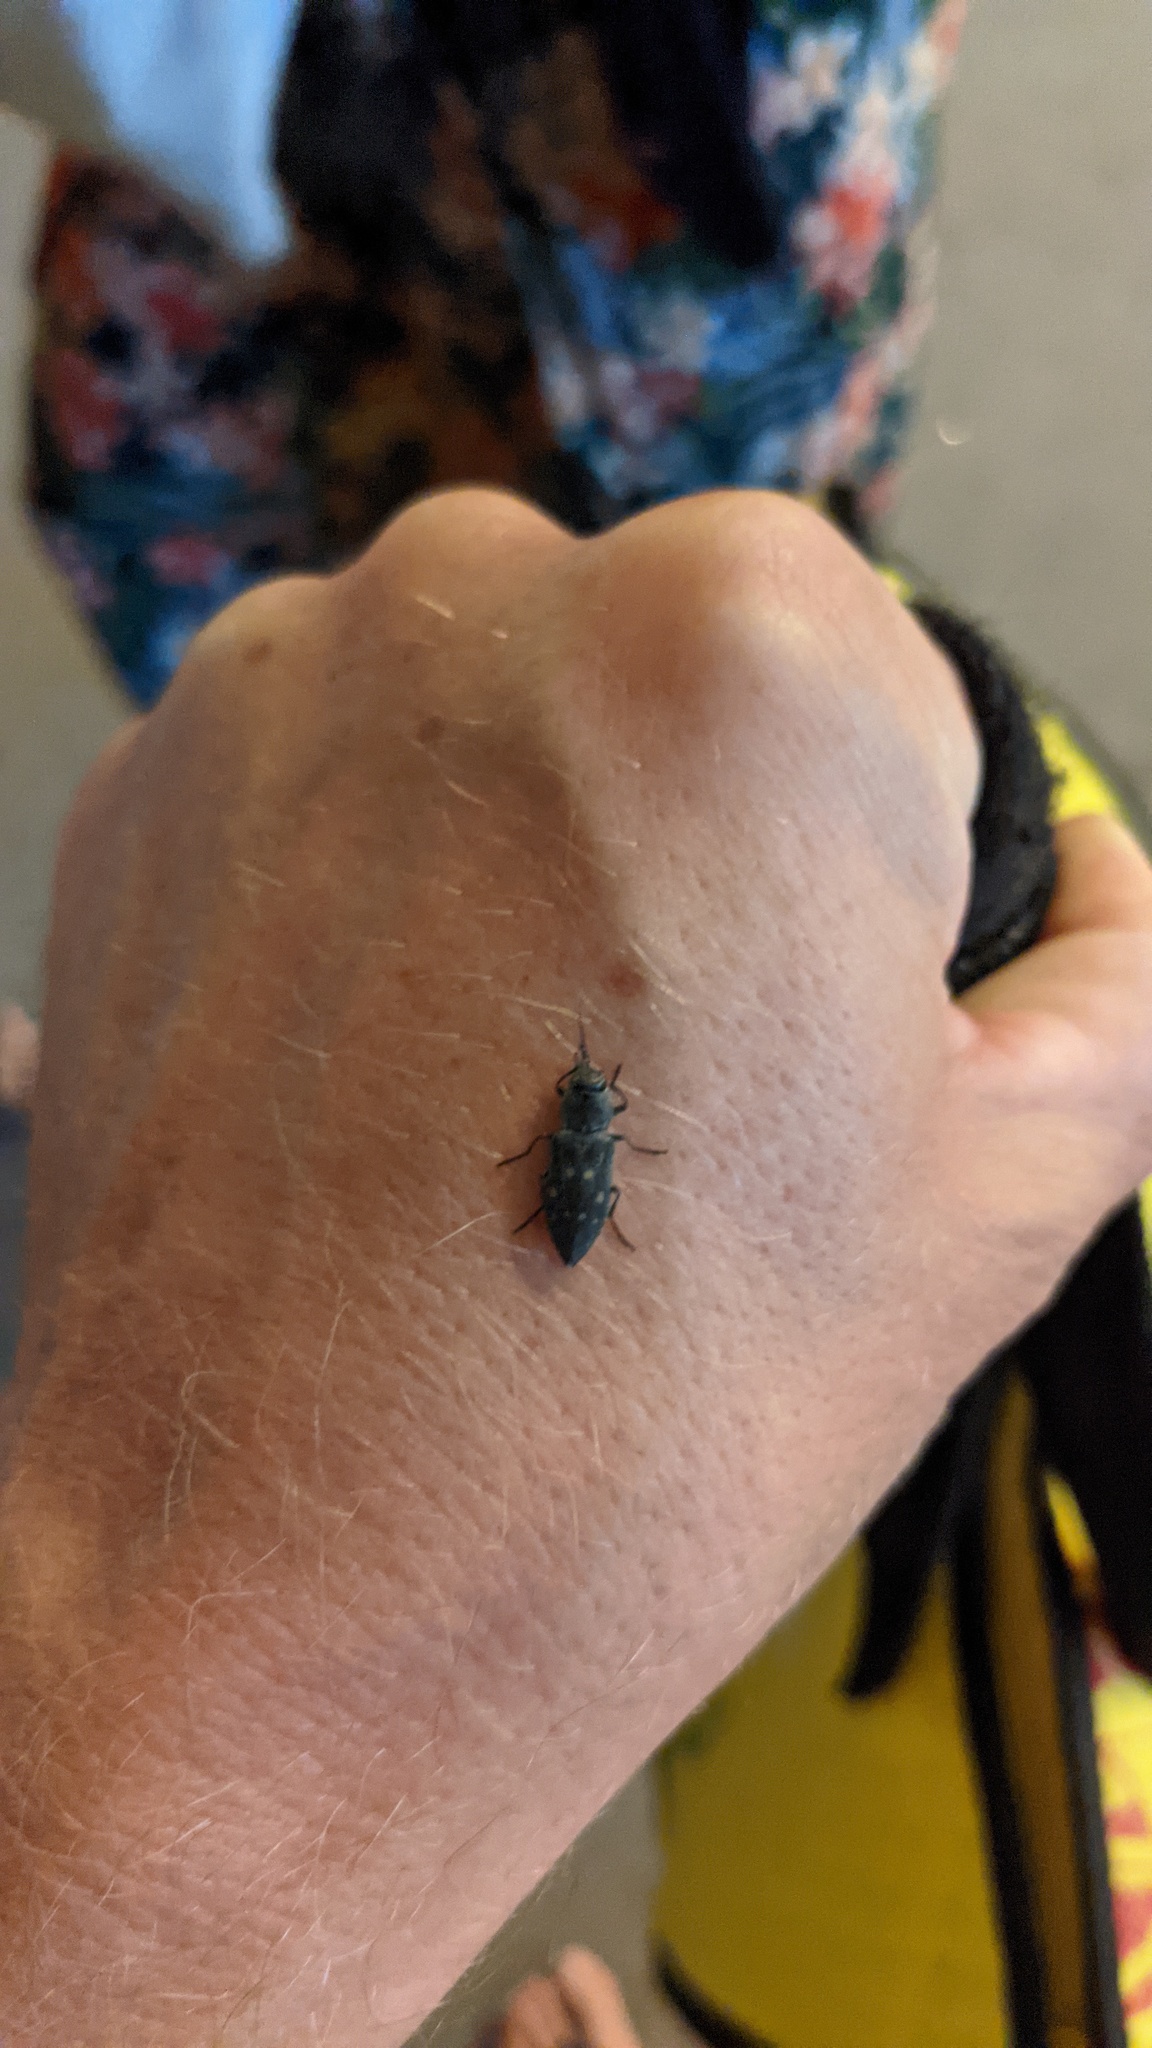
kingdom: Animalia
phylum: Arthropoda
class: Insecta
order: Coleoptera
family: Buprestidae
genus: Melanophila
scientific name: Melanophila consputa
